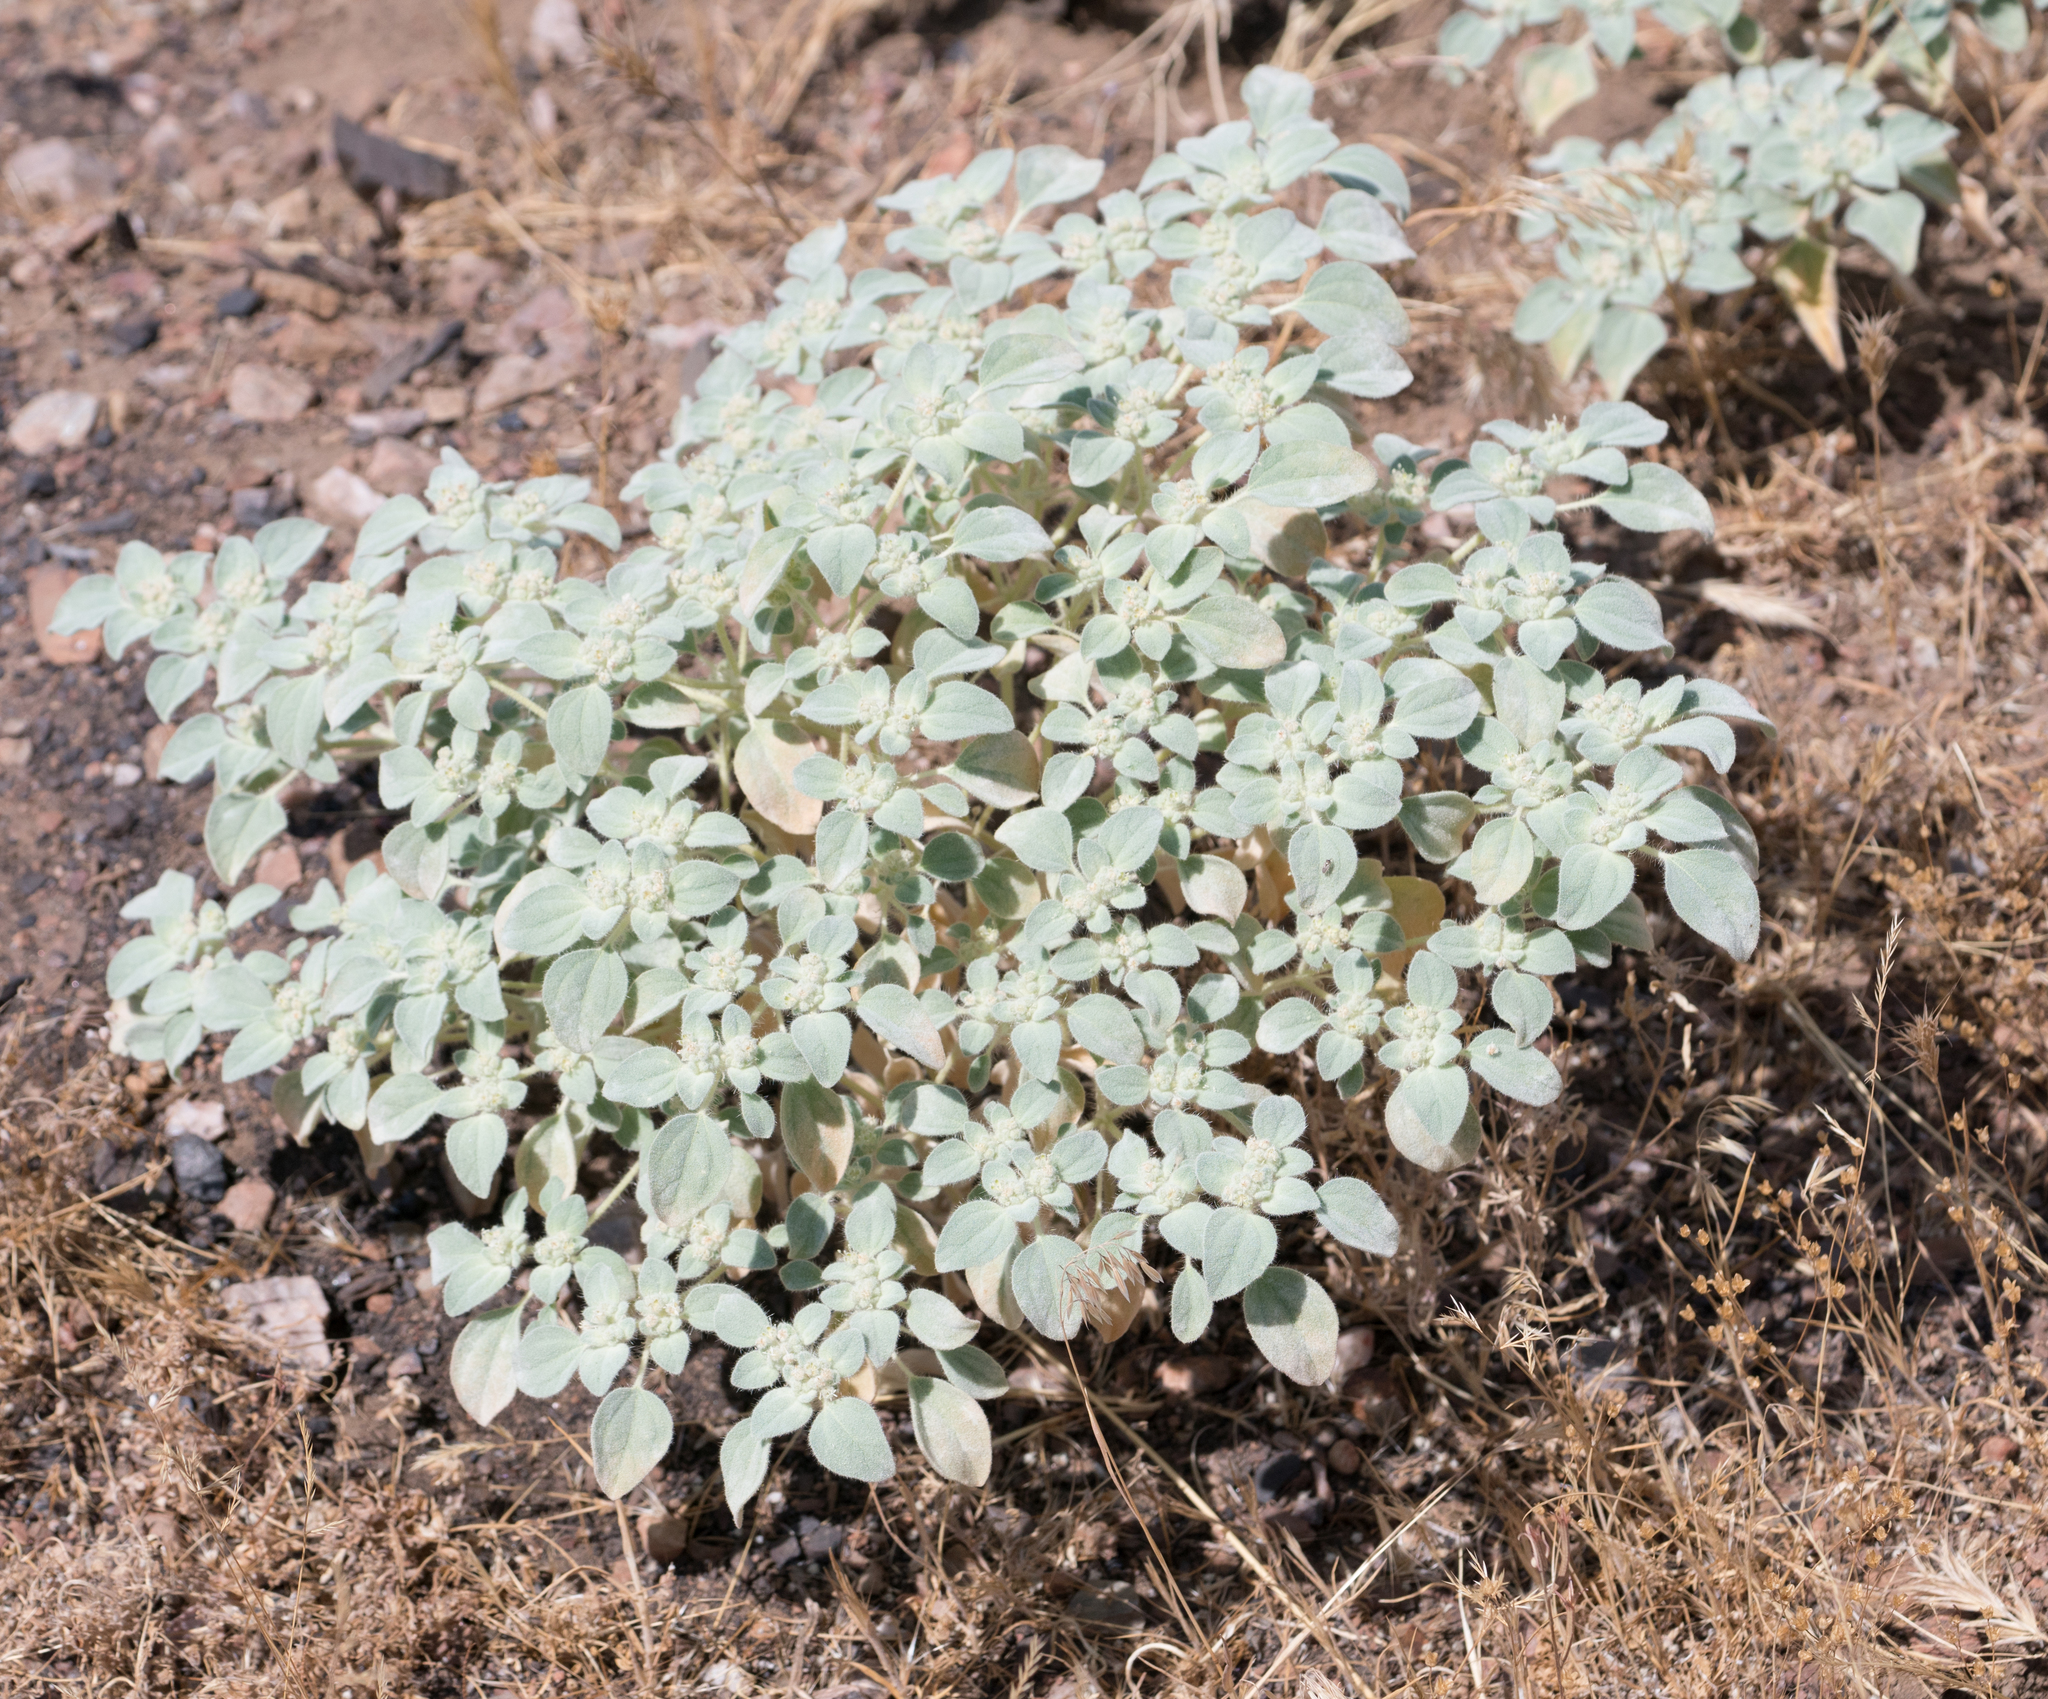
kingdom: Plantae
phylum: Tracheophyta
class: Magnoliopsida
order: Malpighiales
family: Euphorbiaceae
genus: Croton
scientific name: Croton setiger
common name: Dove weed
